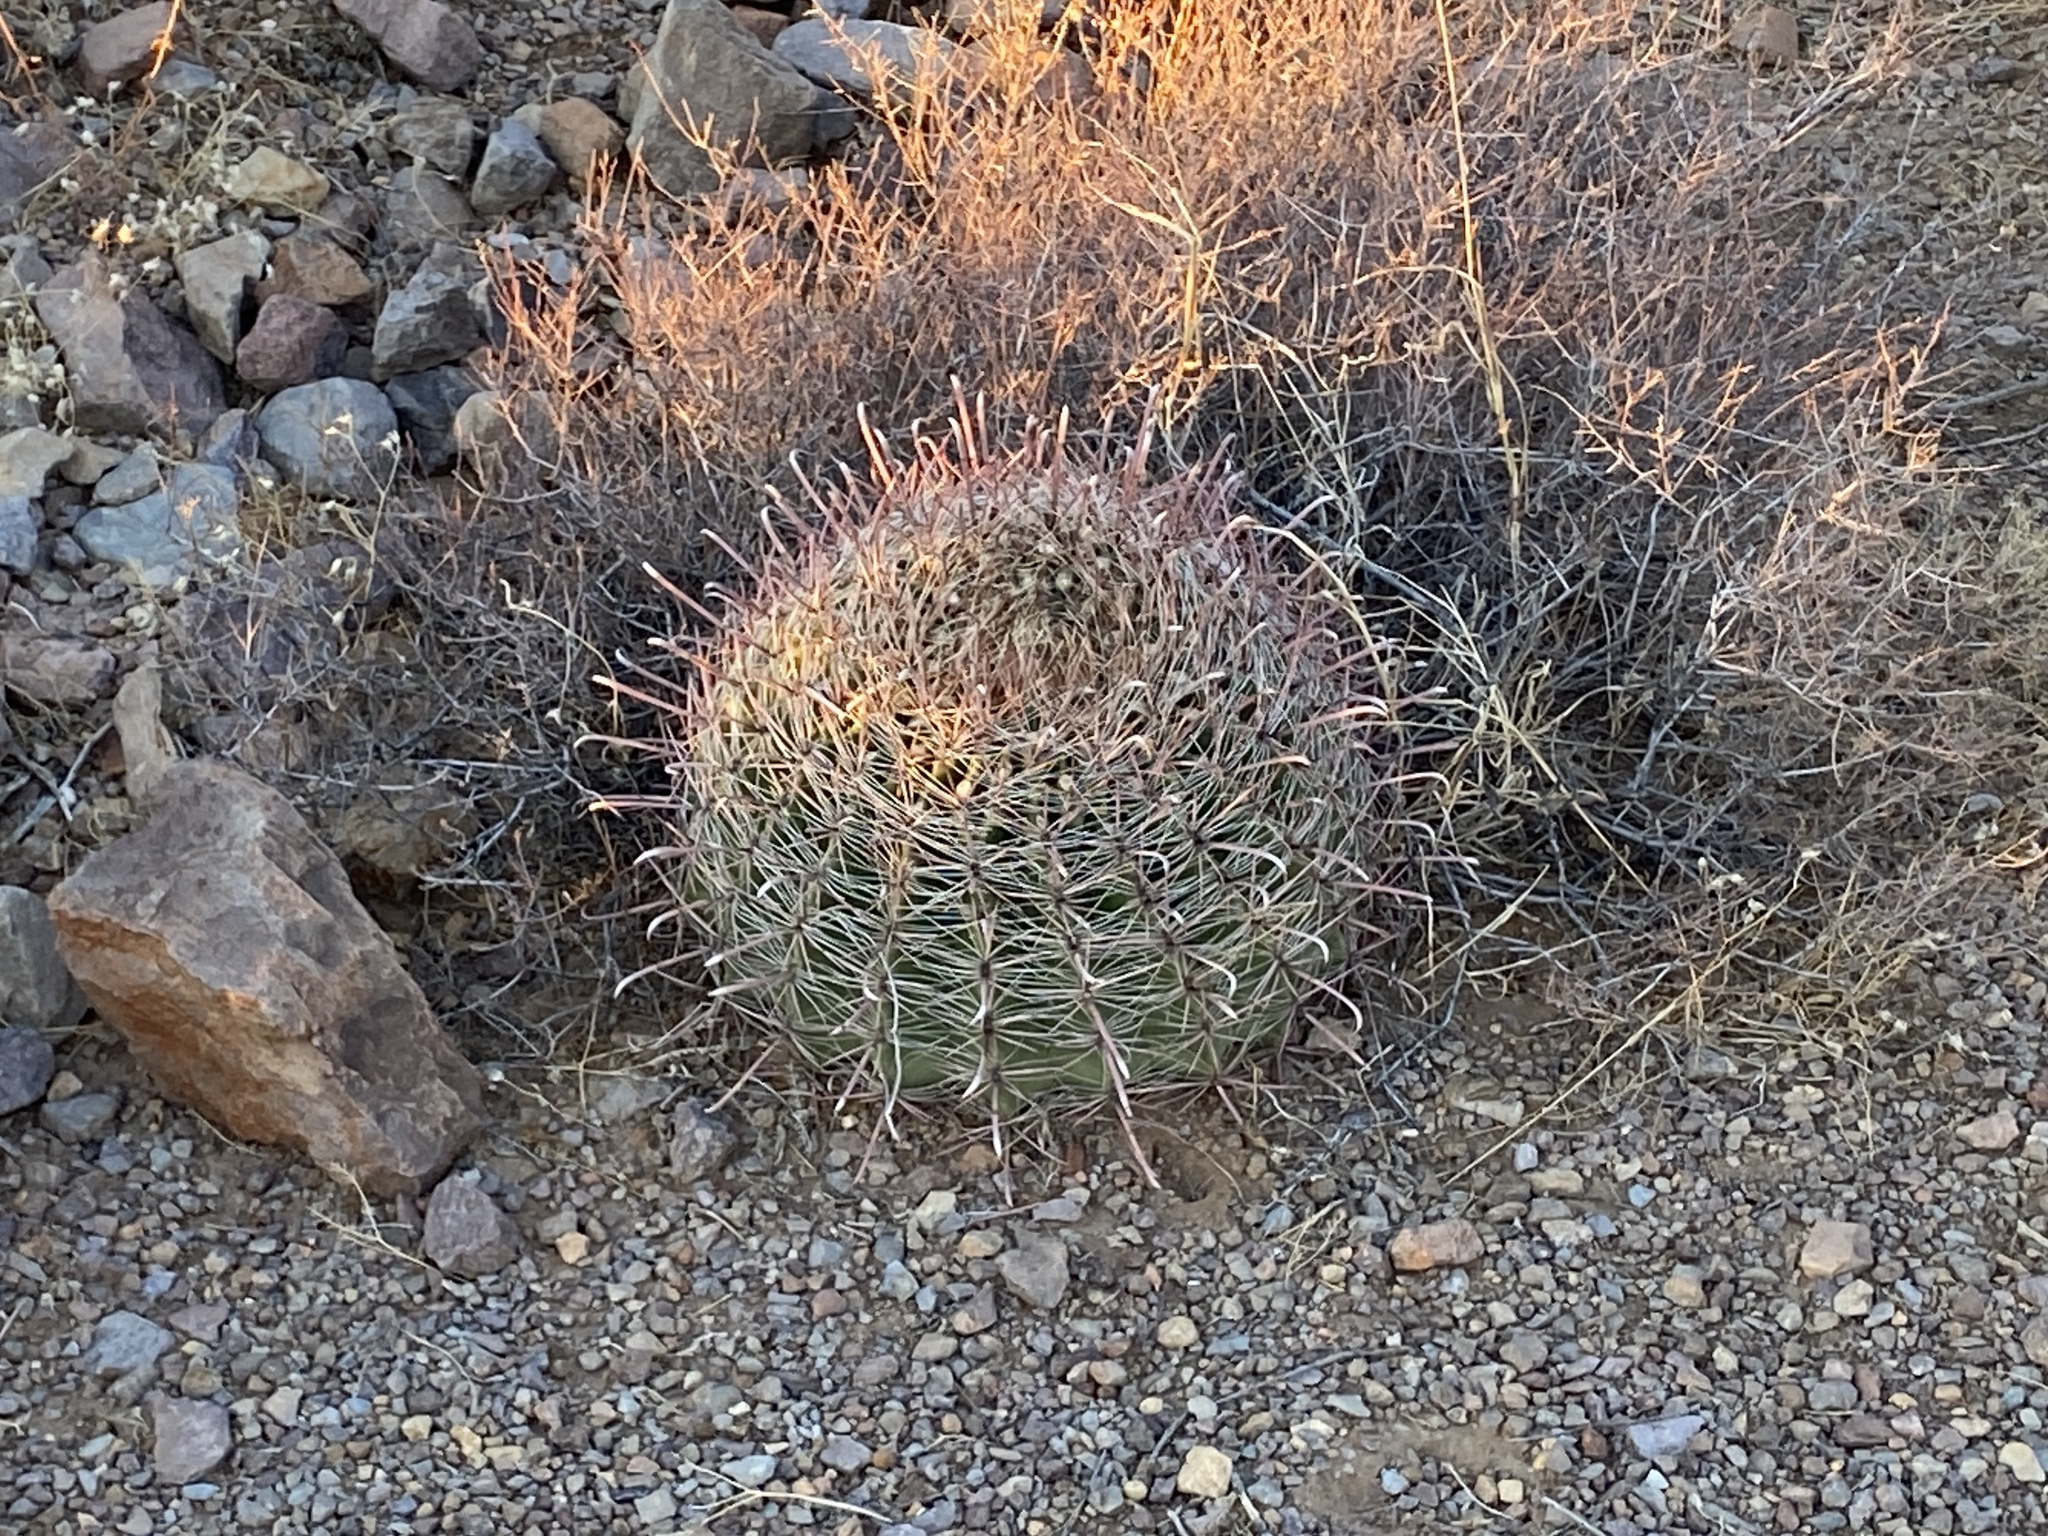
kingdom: Plantae
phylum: Tracheophyta
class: Magnoliopsida
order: Caryophyllales
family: Cactaceae
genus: Ferocactus
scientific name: Ferocactus wislizeni
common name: Candy barrel cactus
